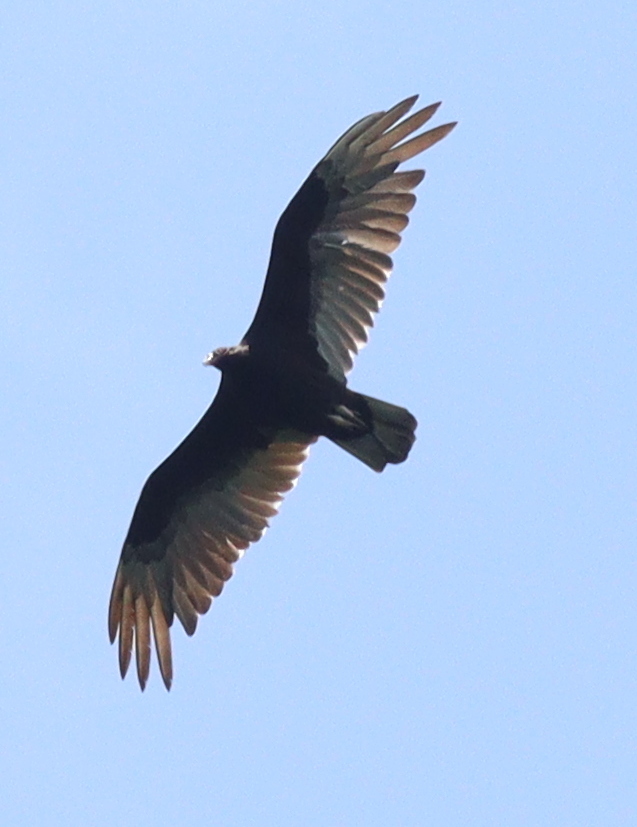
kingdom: Animalia
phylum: Chordata
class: Aves
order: Accipitriformes
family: Cathartidae
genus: Cathartes
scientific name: Cathartes aura
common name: Turkey vulture
